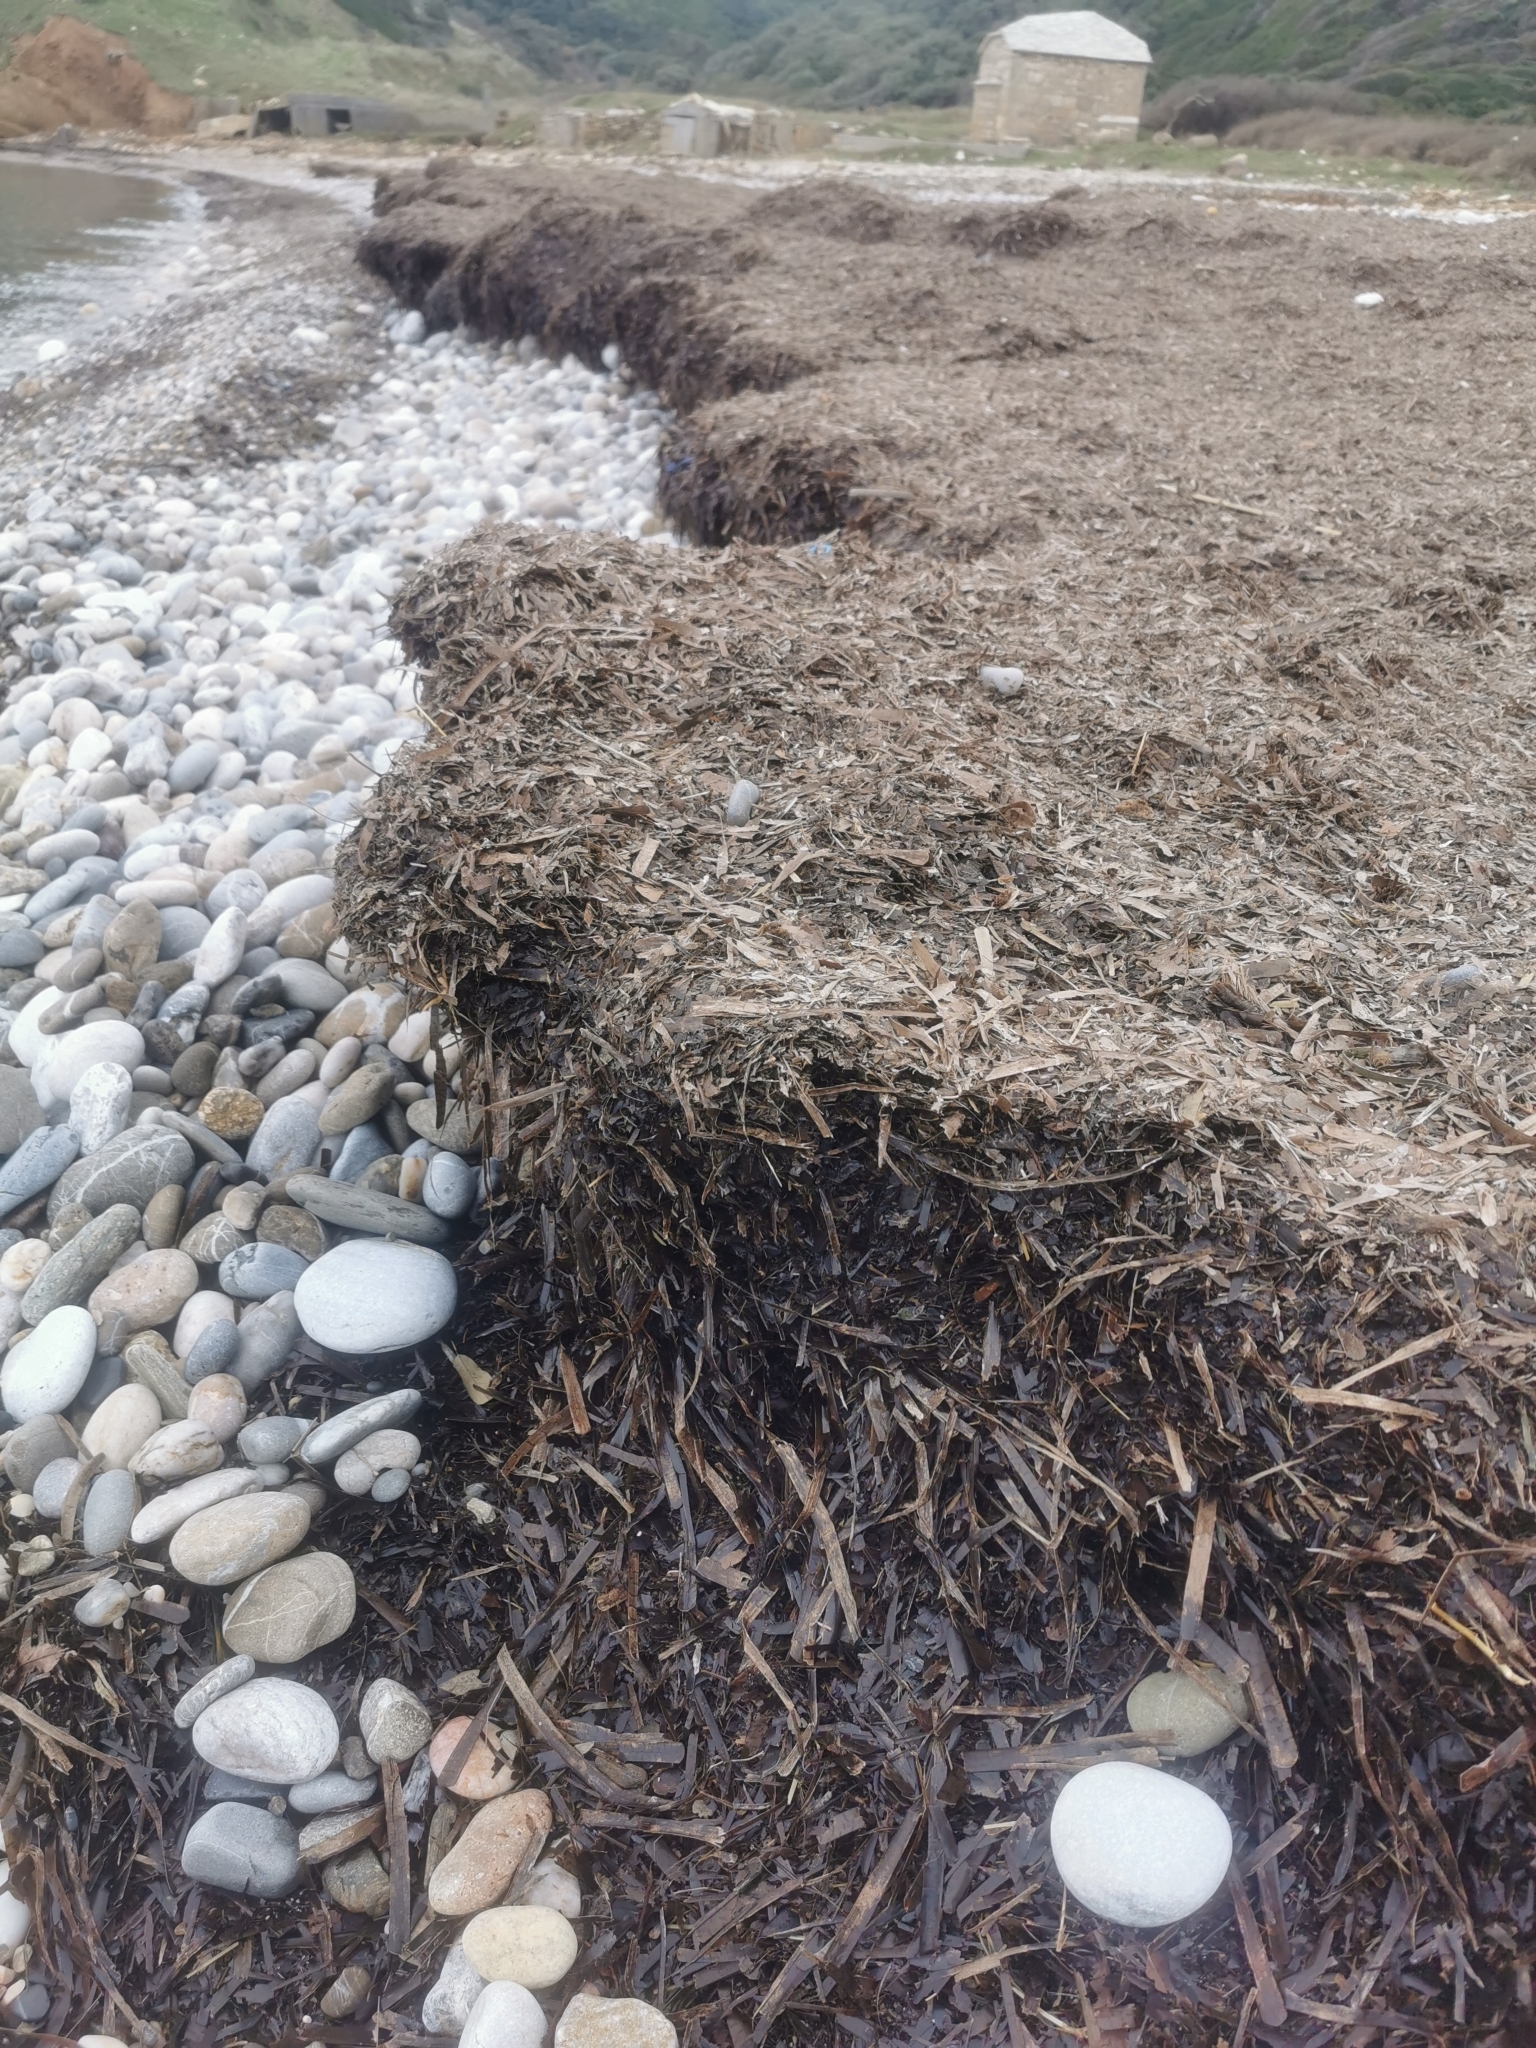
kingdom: Plantae
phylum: Tracheophyta
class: Liliopsida
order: Alismatales
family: Posidoniaceae
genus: Posidonia
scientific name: Posidonia oceanica
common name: Mediterranean tapeweed
